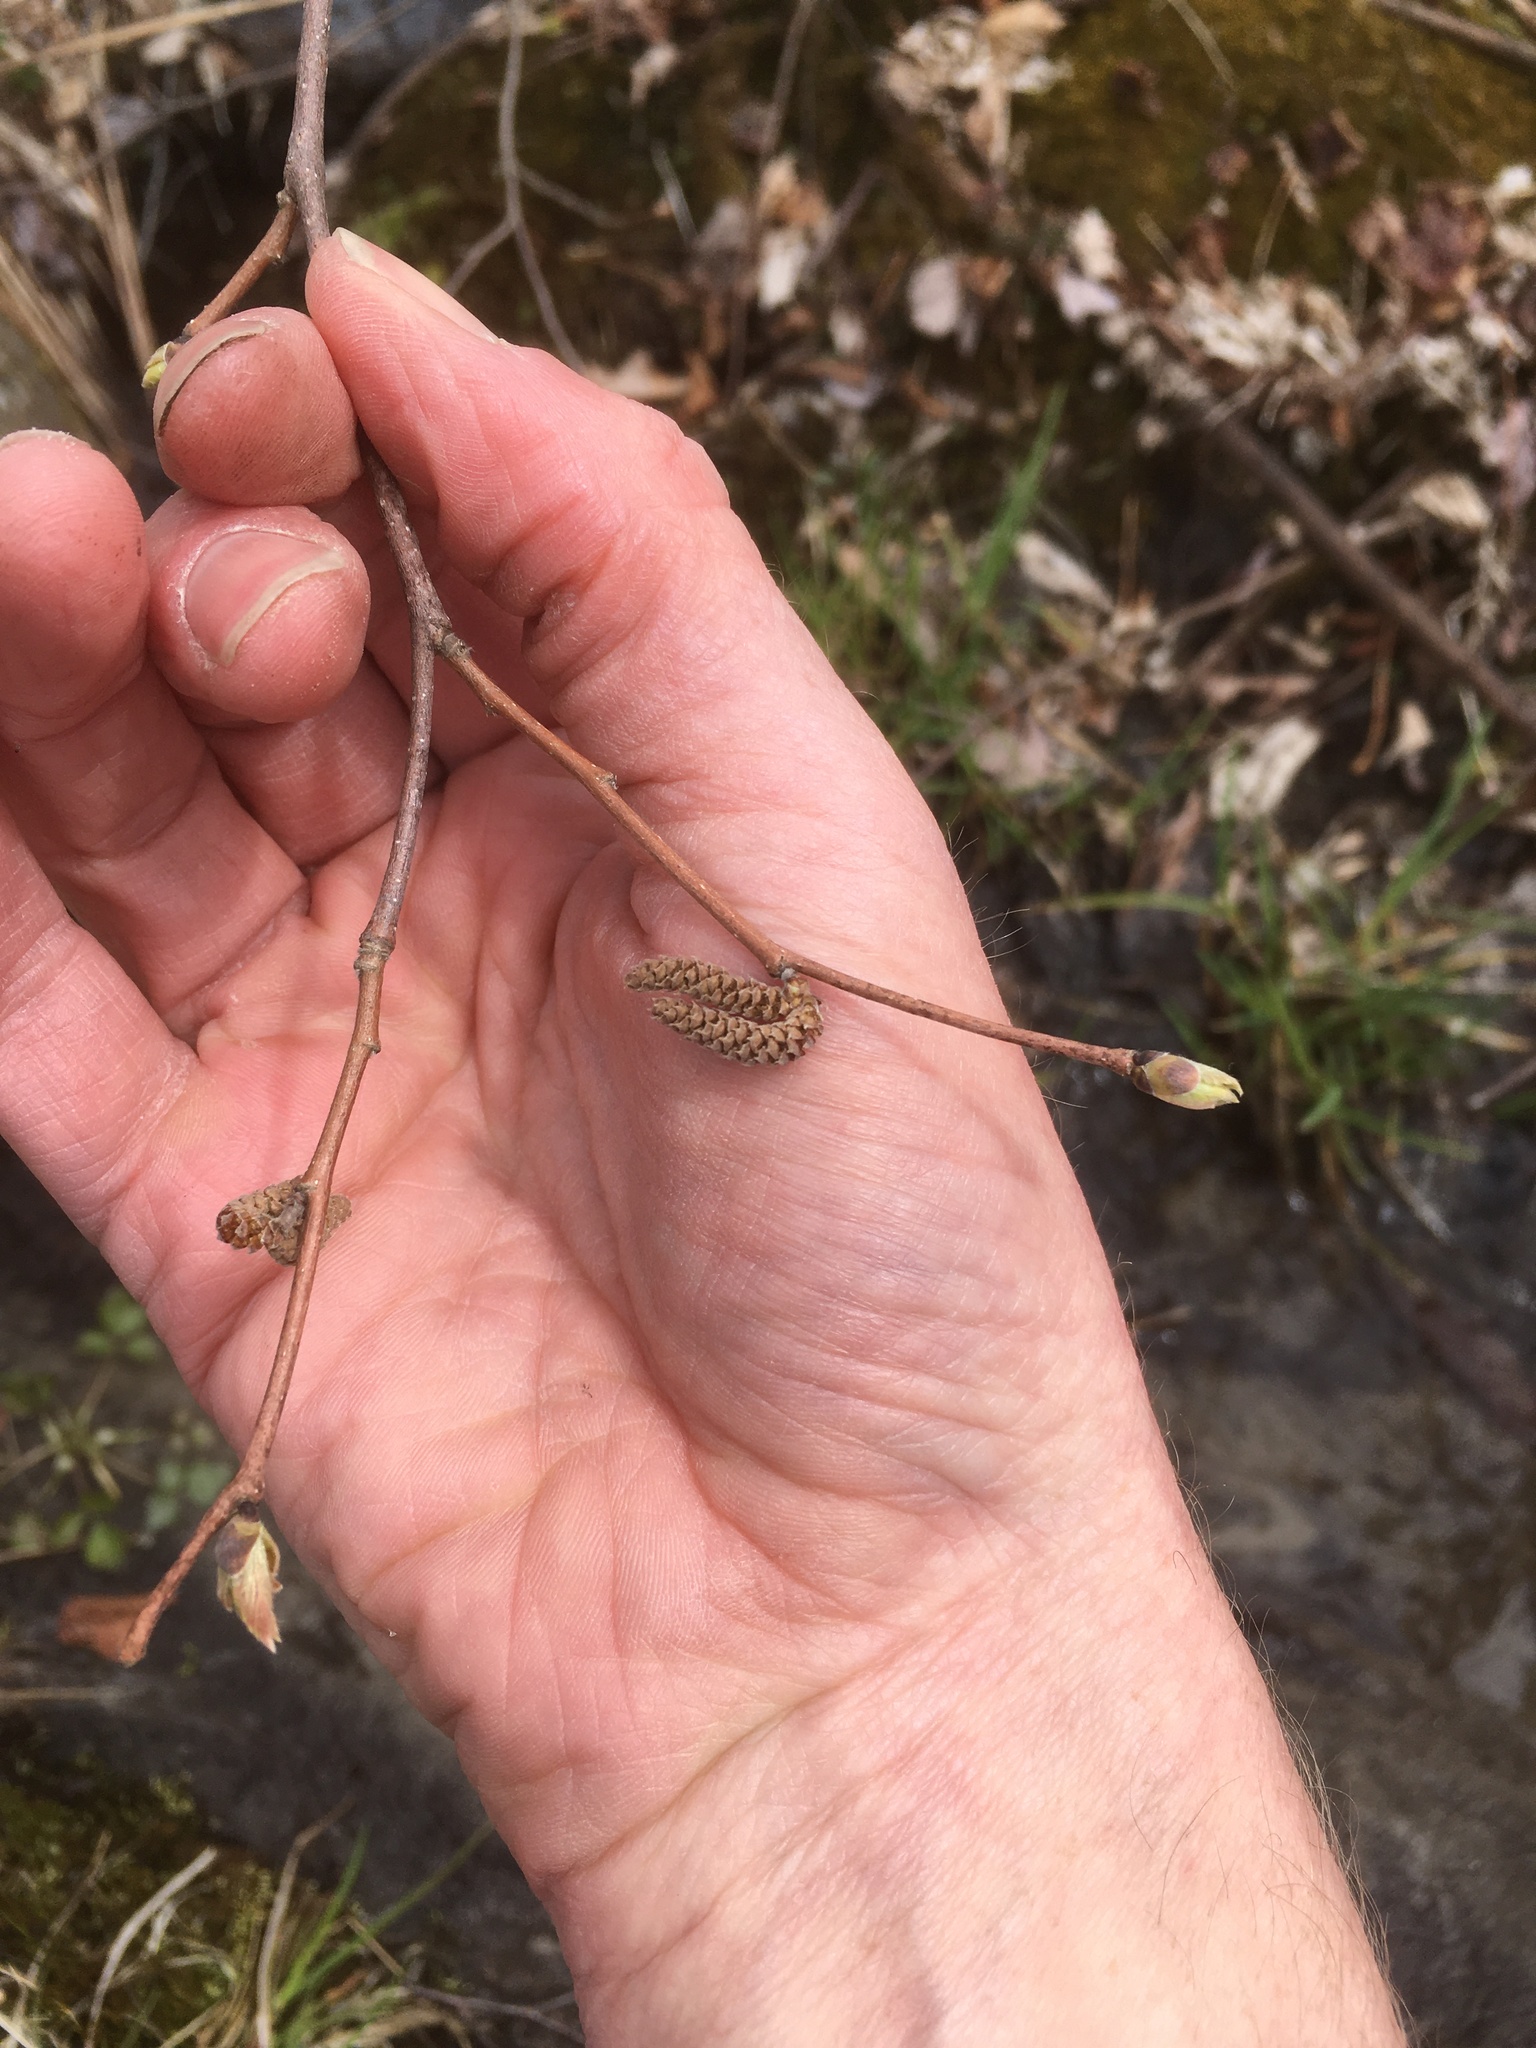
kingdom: Plantae
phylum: Tracheophyta
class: Magnoliopsida
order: Fagales
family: Betulaceae
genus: Corylus
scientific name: Corylus cornuta
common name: Beaked hazel
